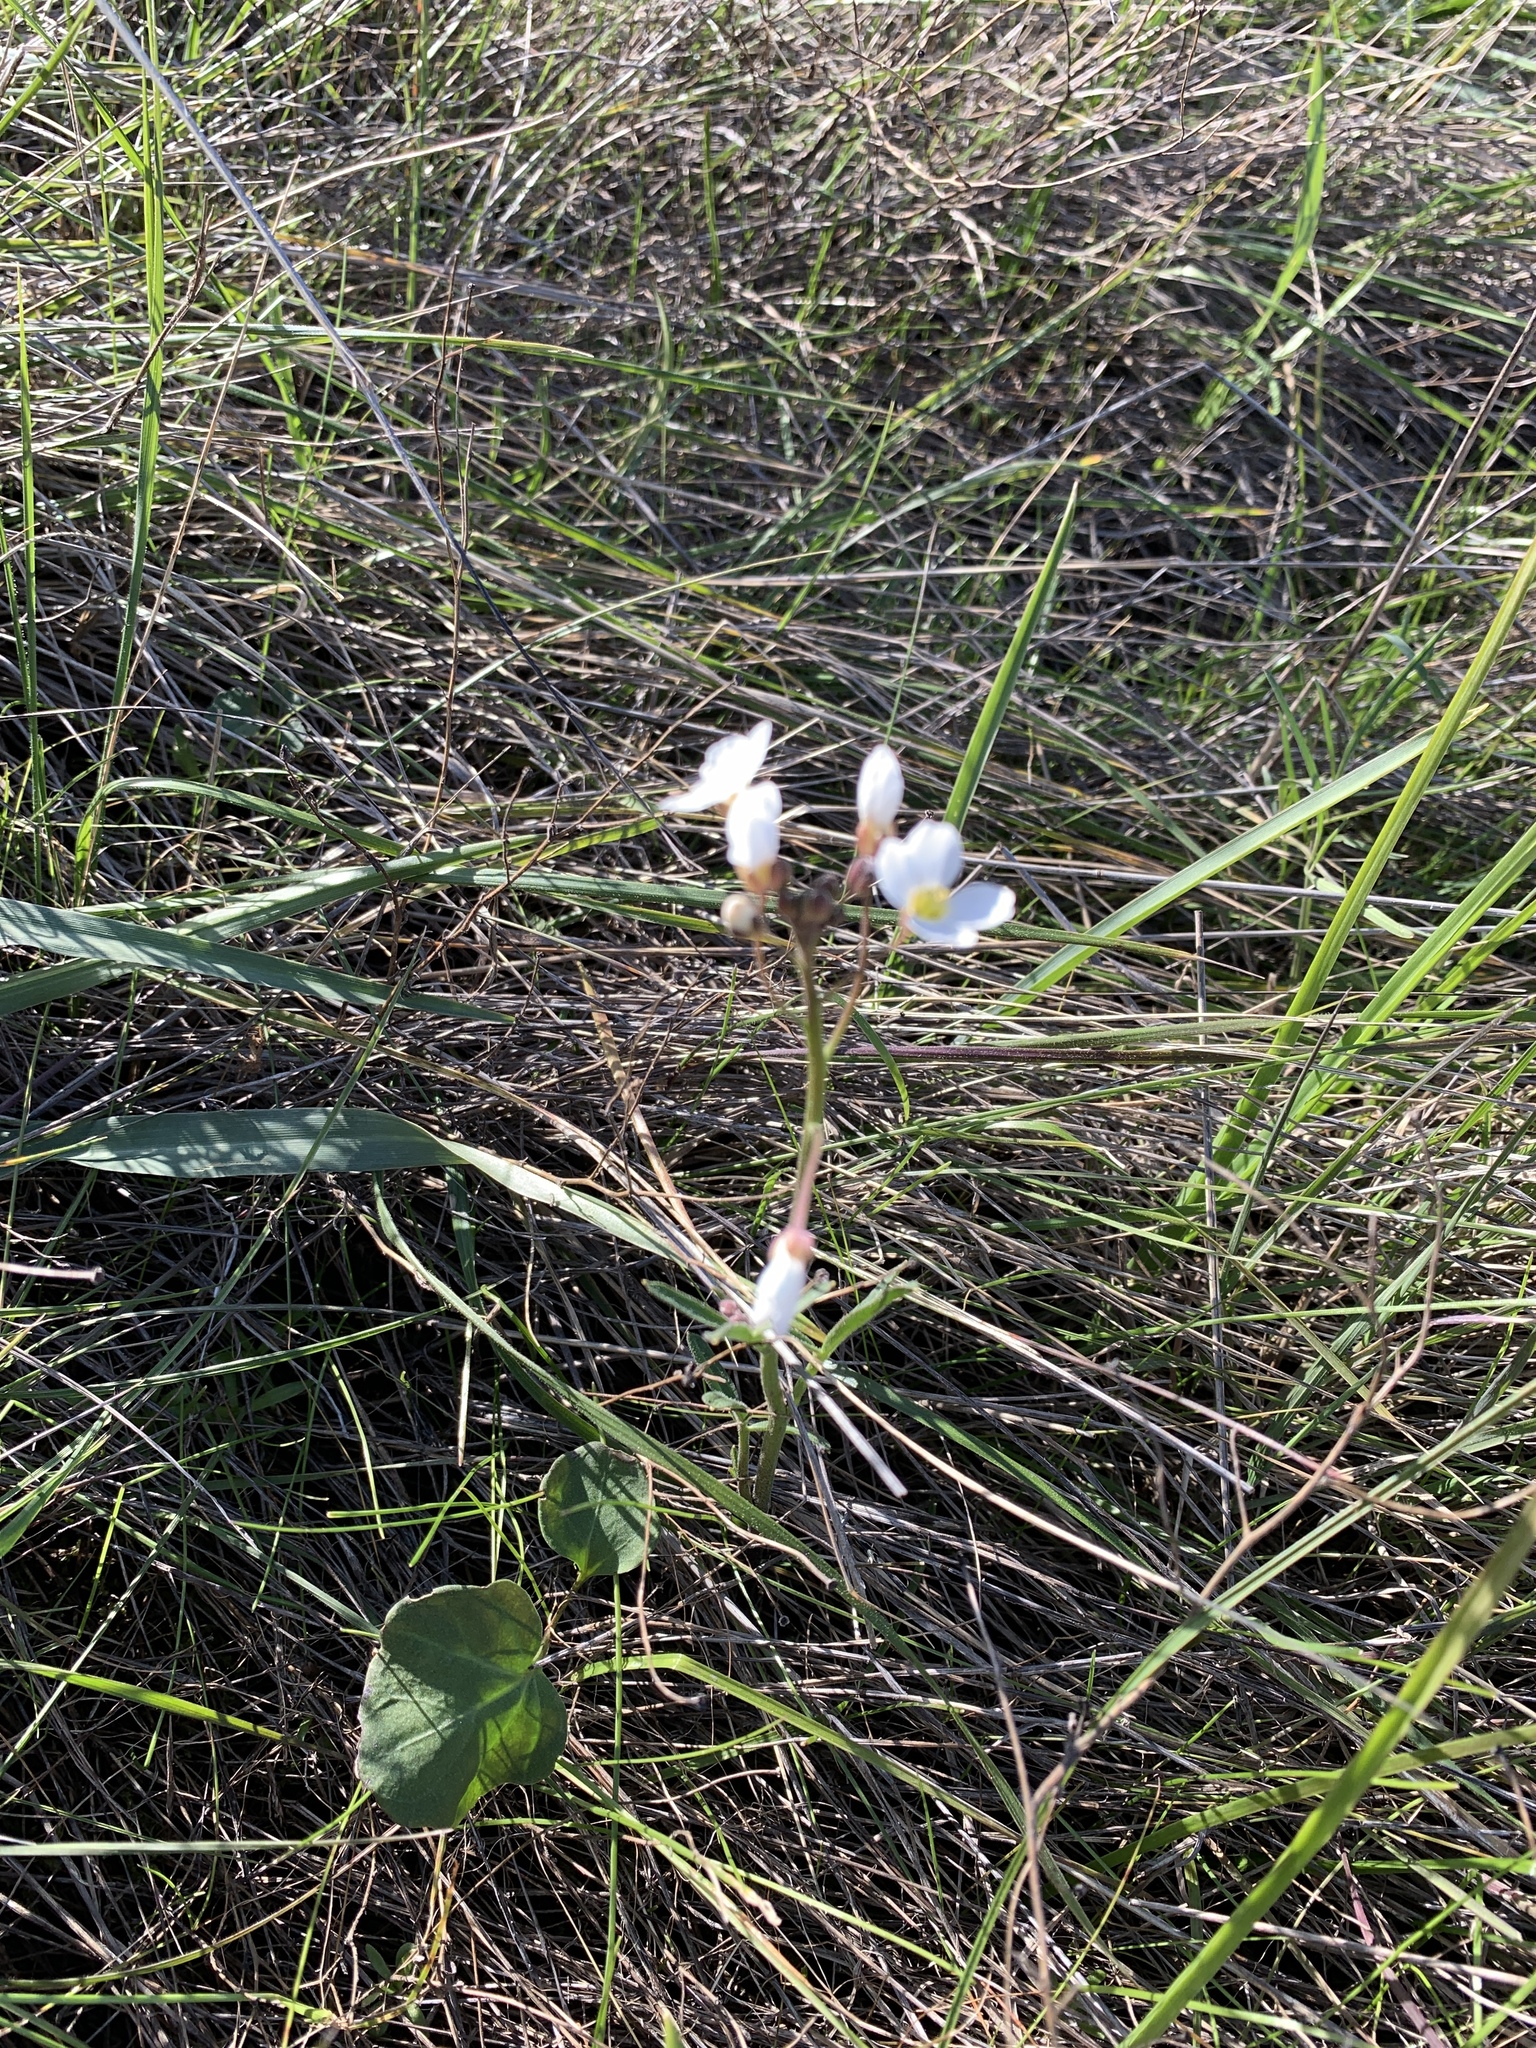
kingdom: Plantae
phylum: Tracheophyta
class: Magnoliopsida
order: Brassicales
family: Brassicaceae
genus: Cardamine
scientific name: Cardamine californica
